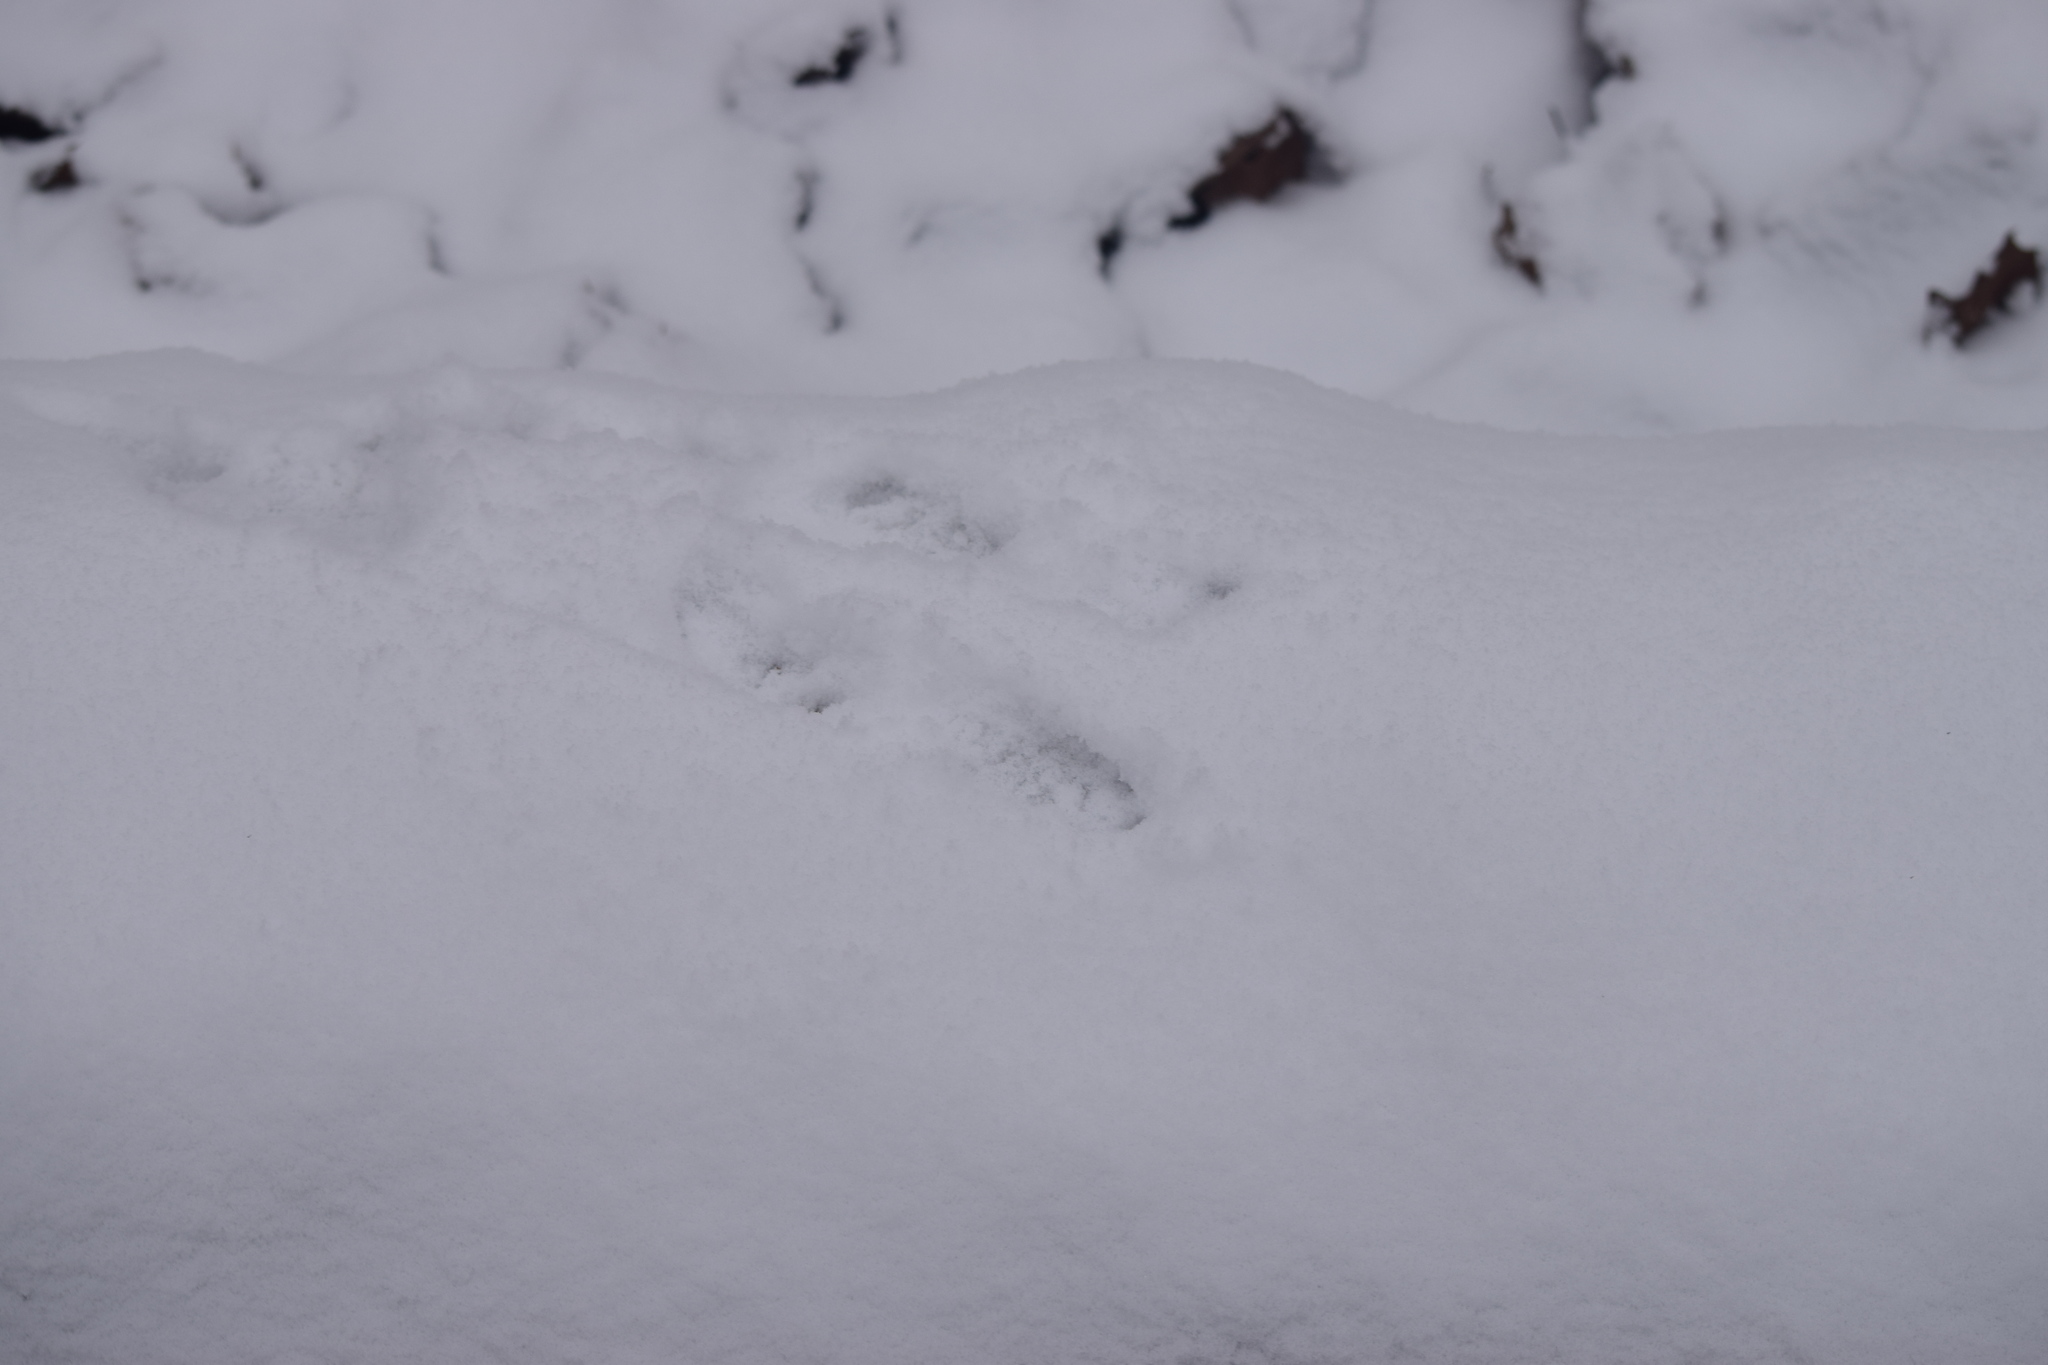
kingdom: Animalia
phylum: Chordata
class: Mammalia
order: Rodentia
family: Sciuridae
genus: Sciurus
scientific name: Sciurus vulgaris
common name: Eurasian red squirrel
